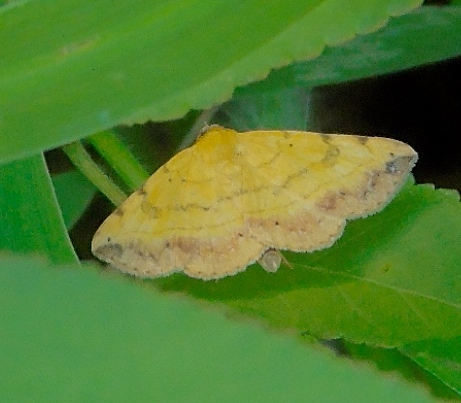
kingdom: Animalia
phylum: Arthropoda
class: Insecta
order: Lepidoptera
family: Erebidae
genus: Hemeroplanis
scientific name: Hemeroplanis scopulepes
